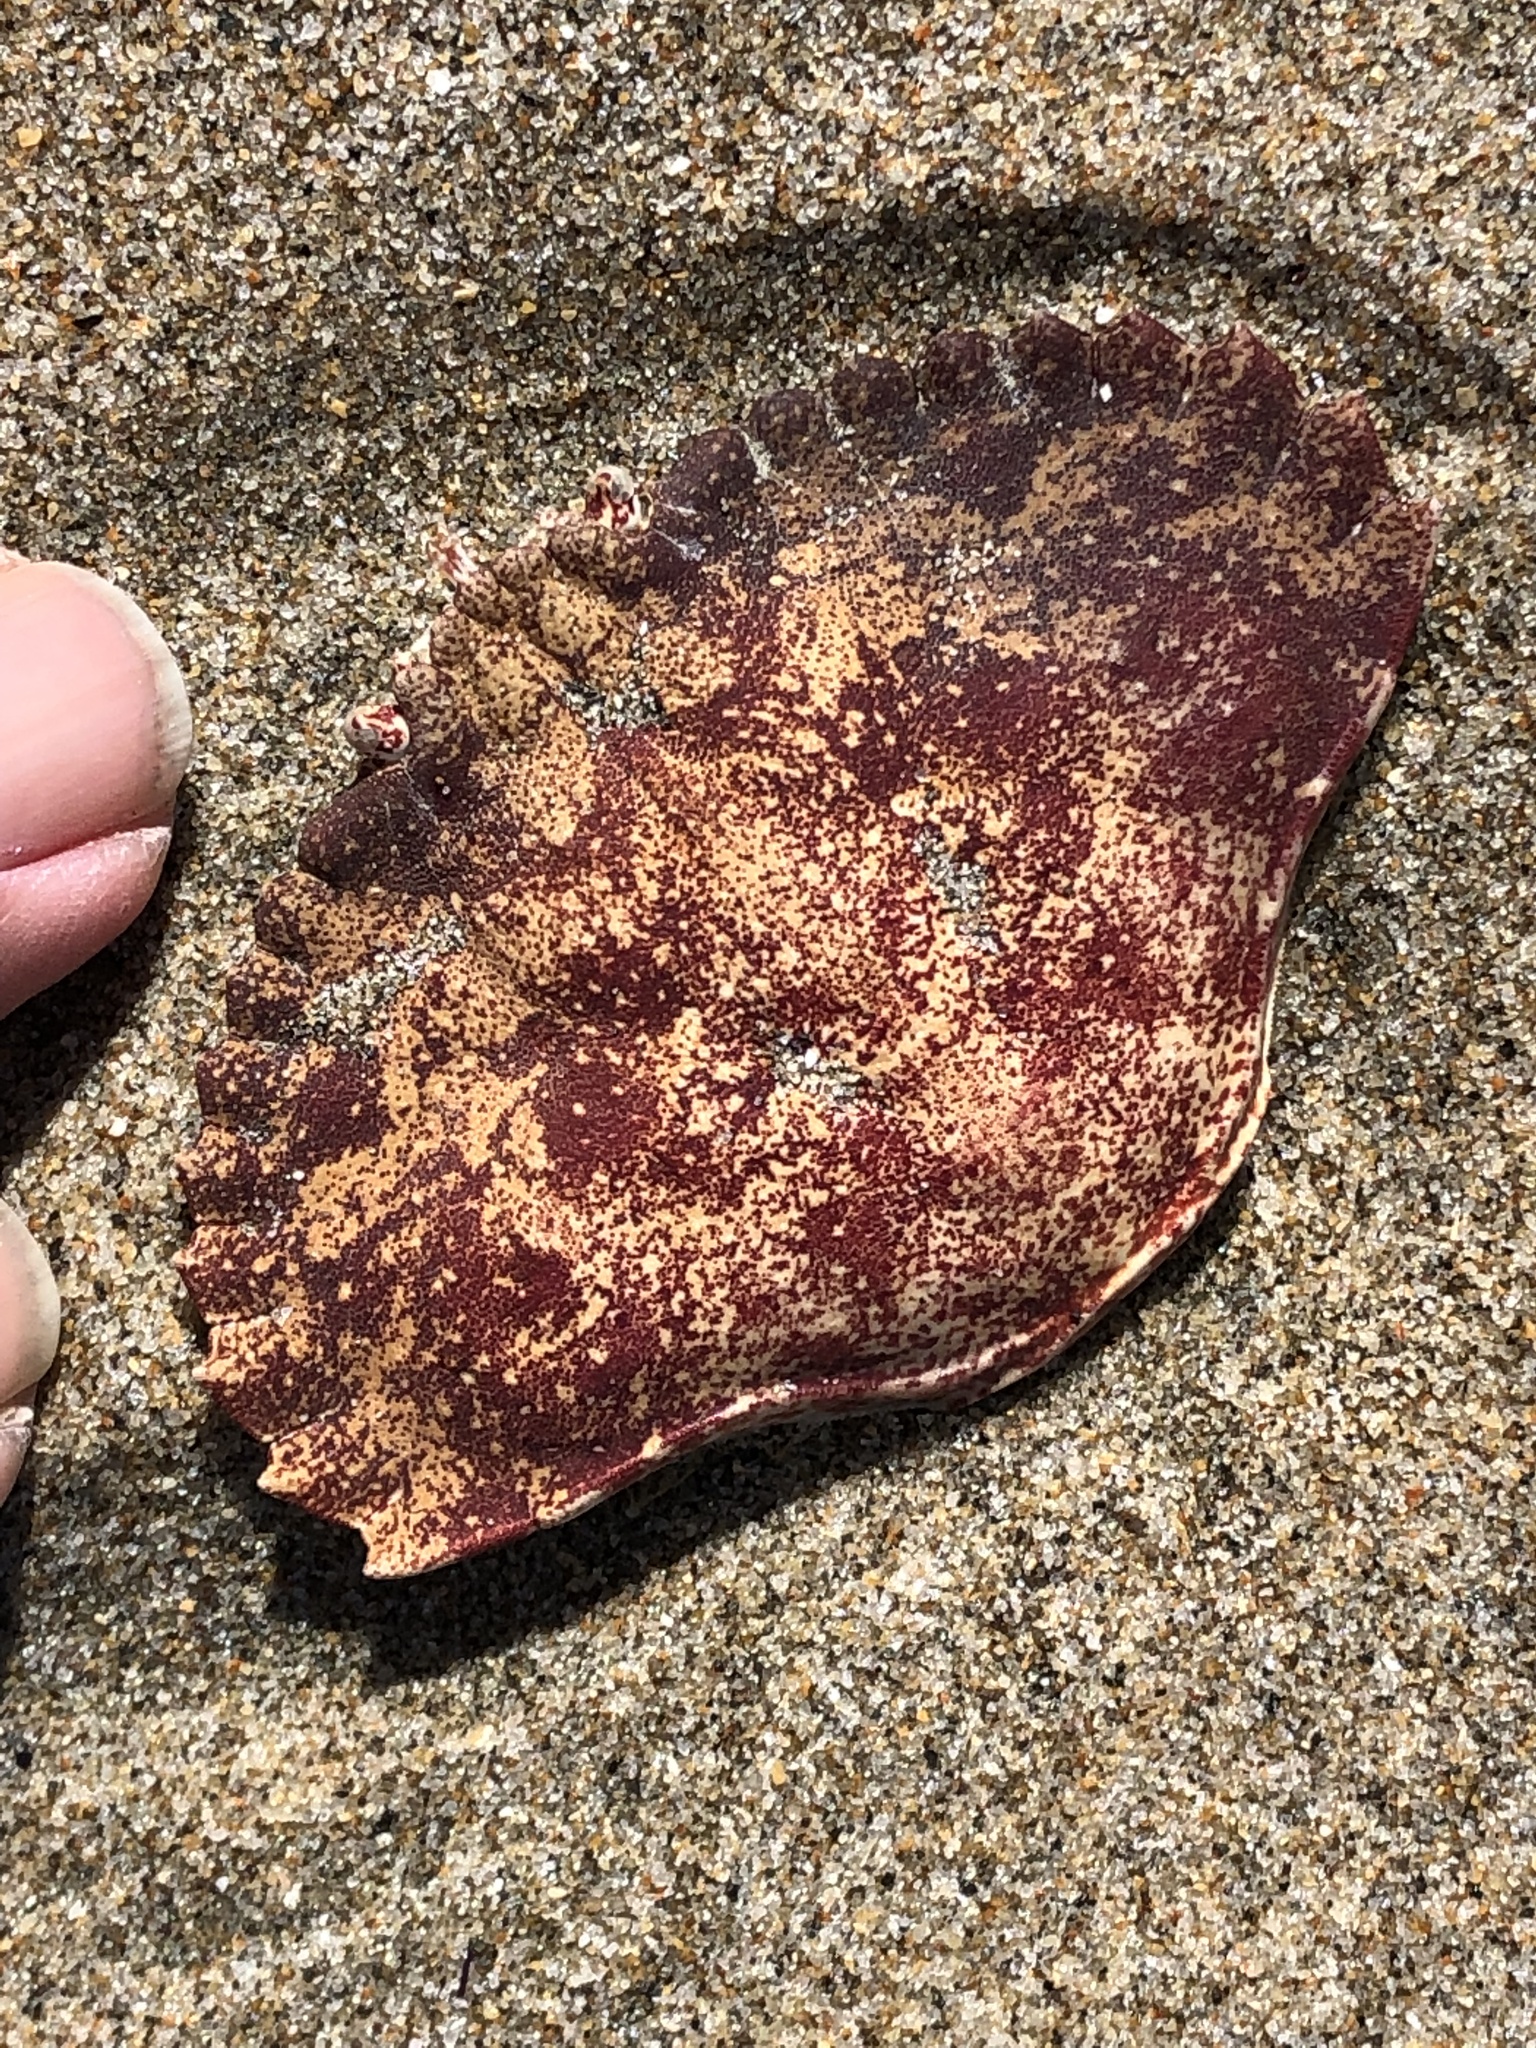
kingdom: Animalia
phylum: Arthropoda
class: Malacostraca
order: Decapoda
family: Cancridae
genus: Cancer
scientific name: Cancer productus
